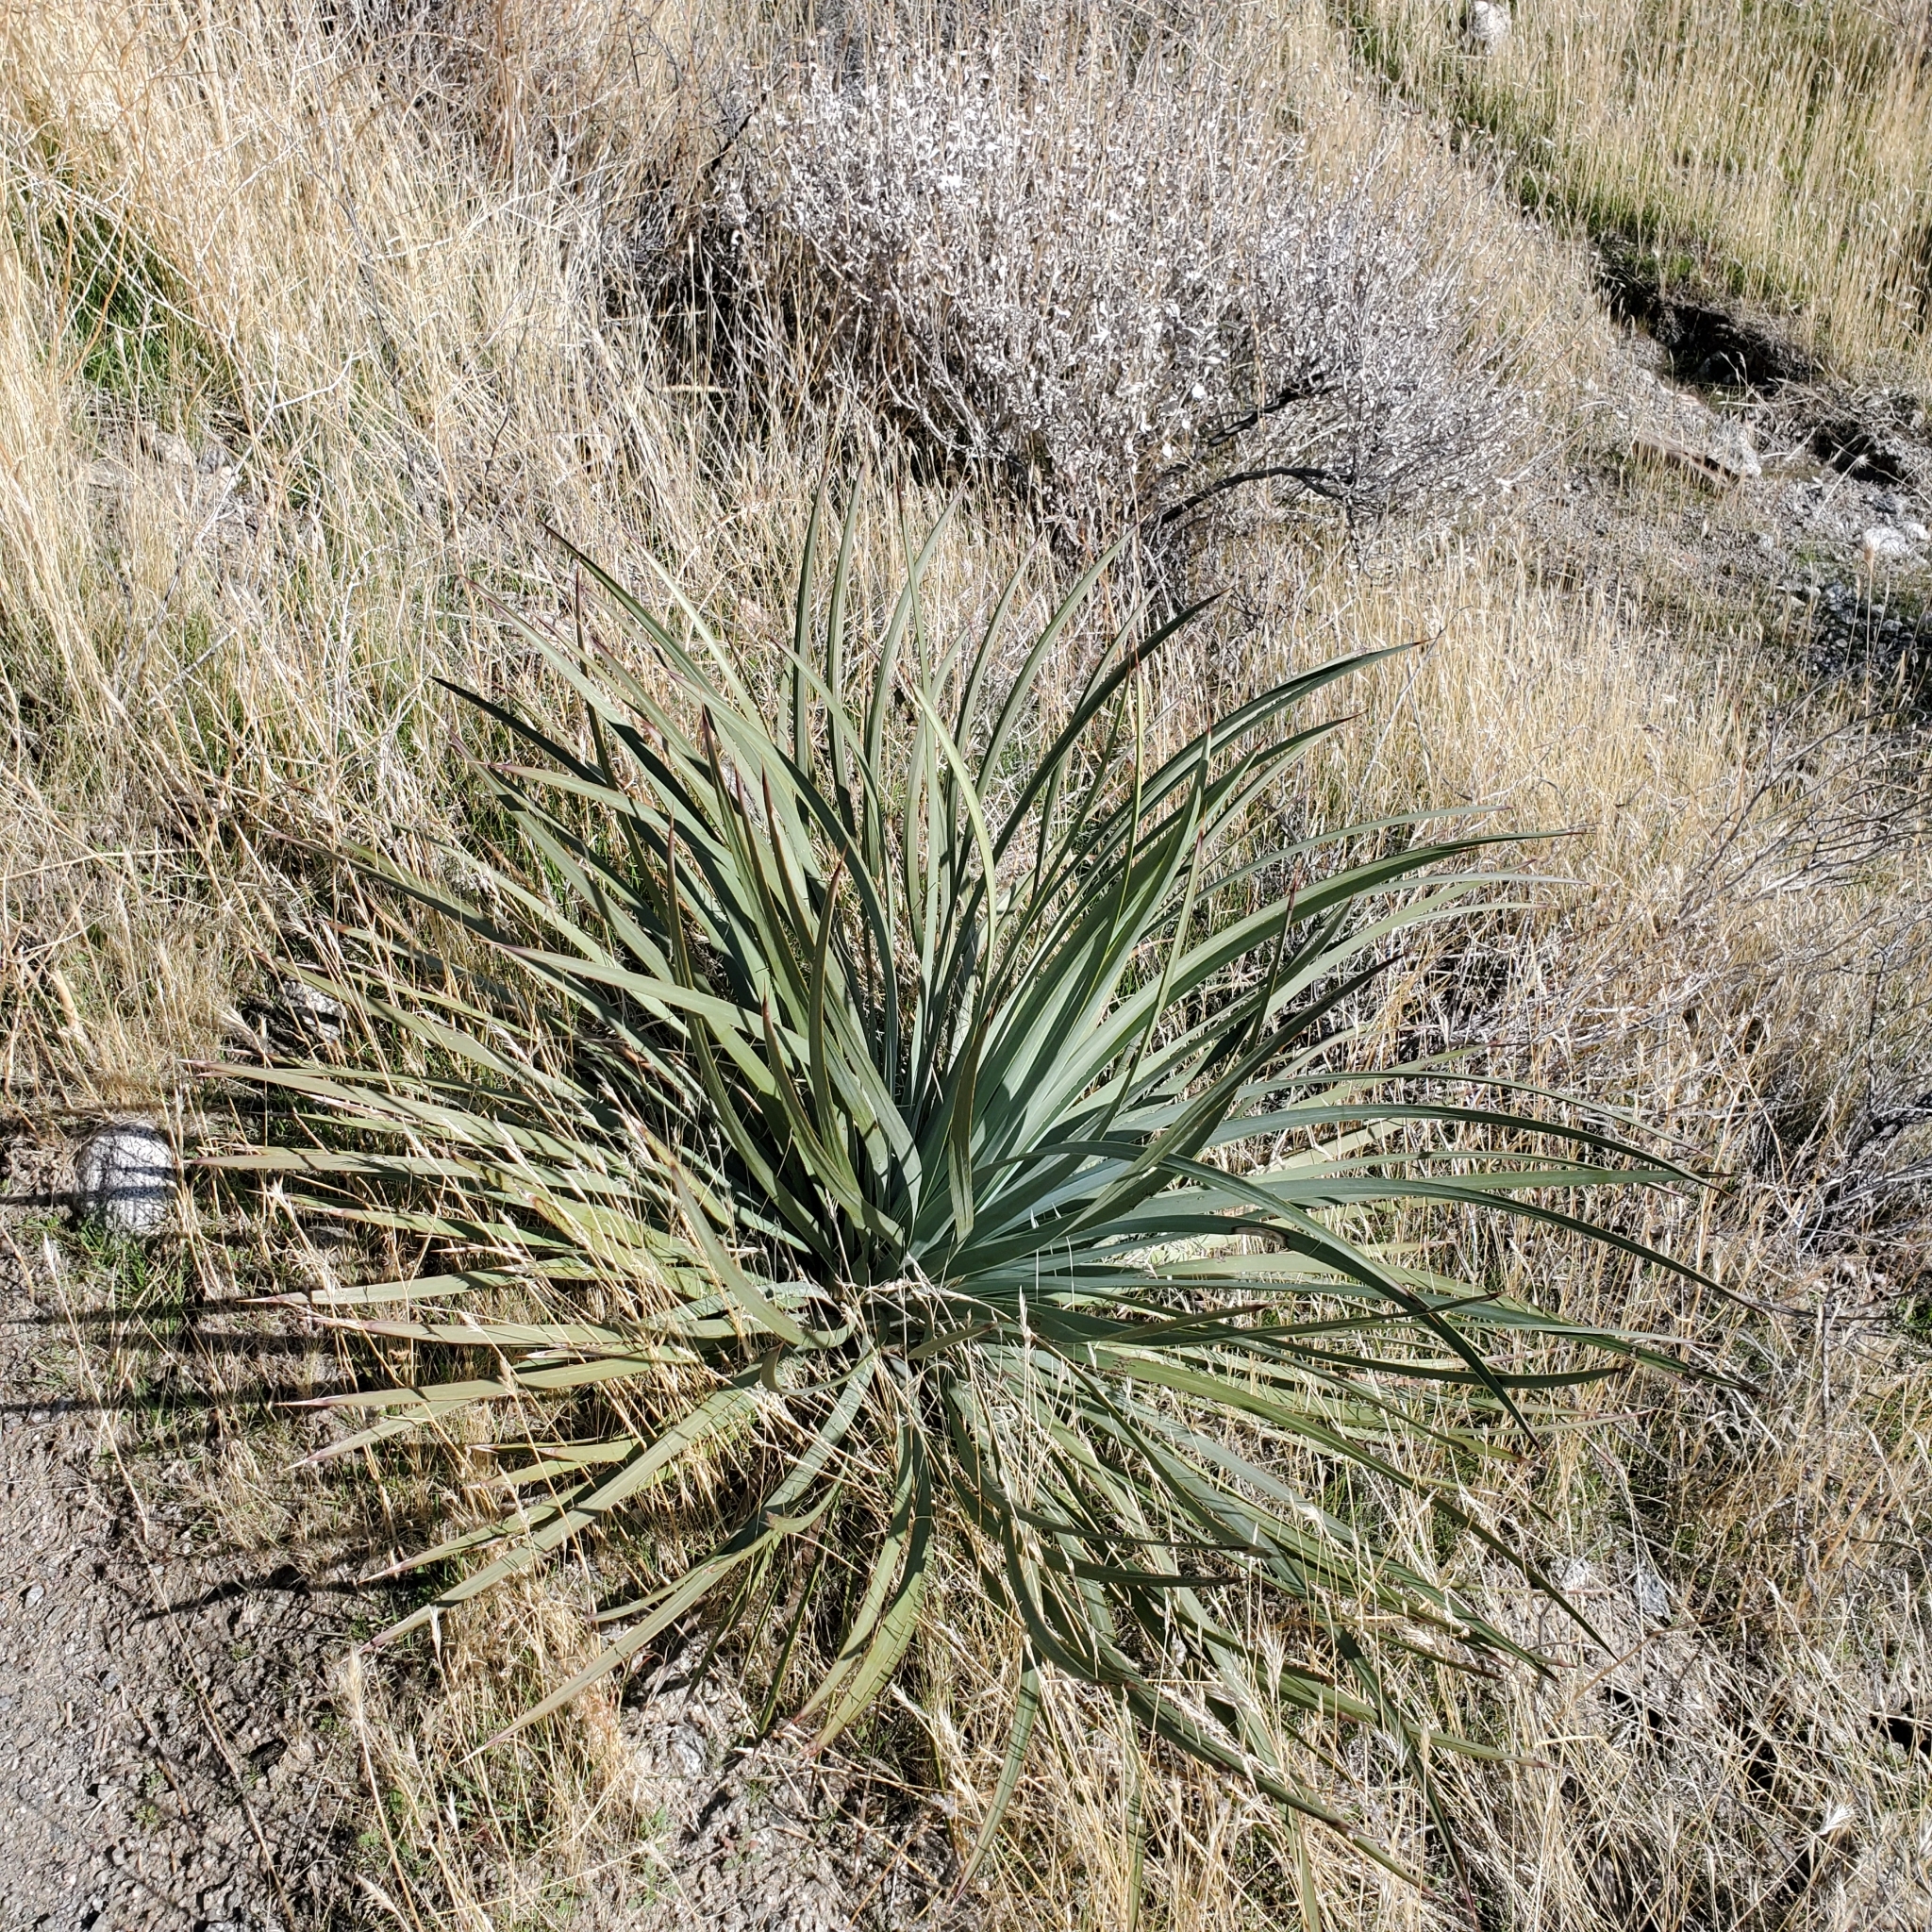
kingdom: Plantae
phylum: Tracheophyta
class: Liliopsida
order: Asparagales
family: Asparagaceae
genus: Hesperoyucca
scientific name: Hesperoyucca whipplei
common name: Our lord's-candle
